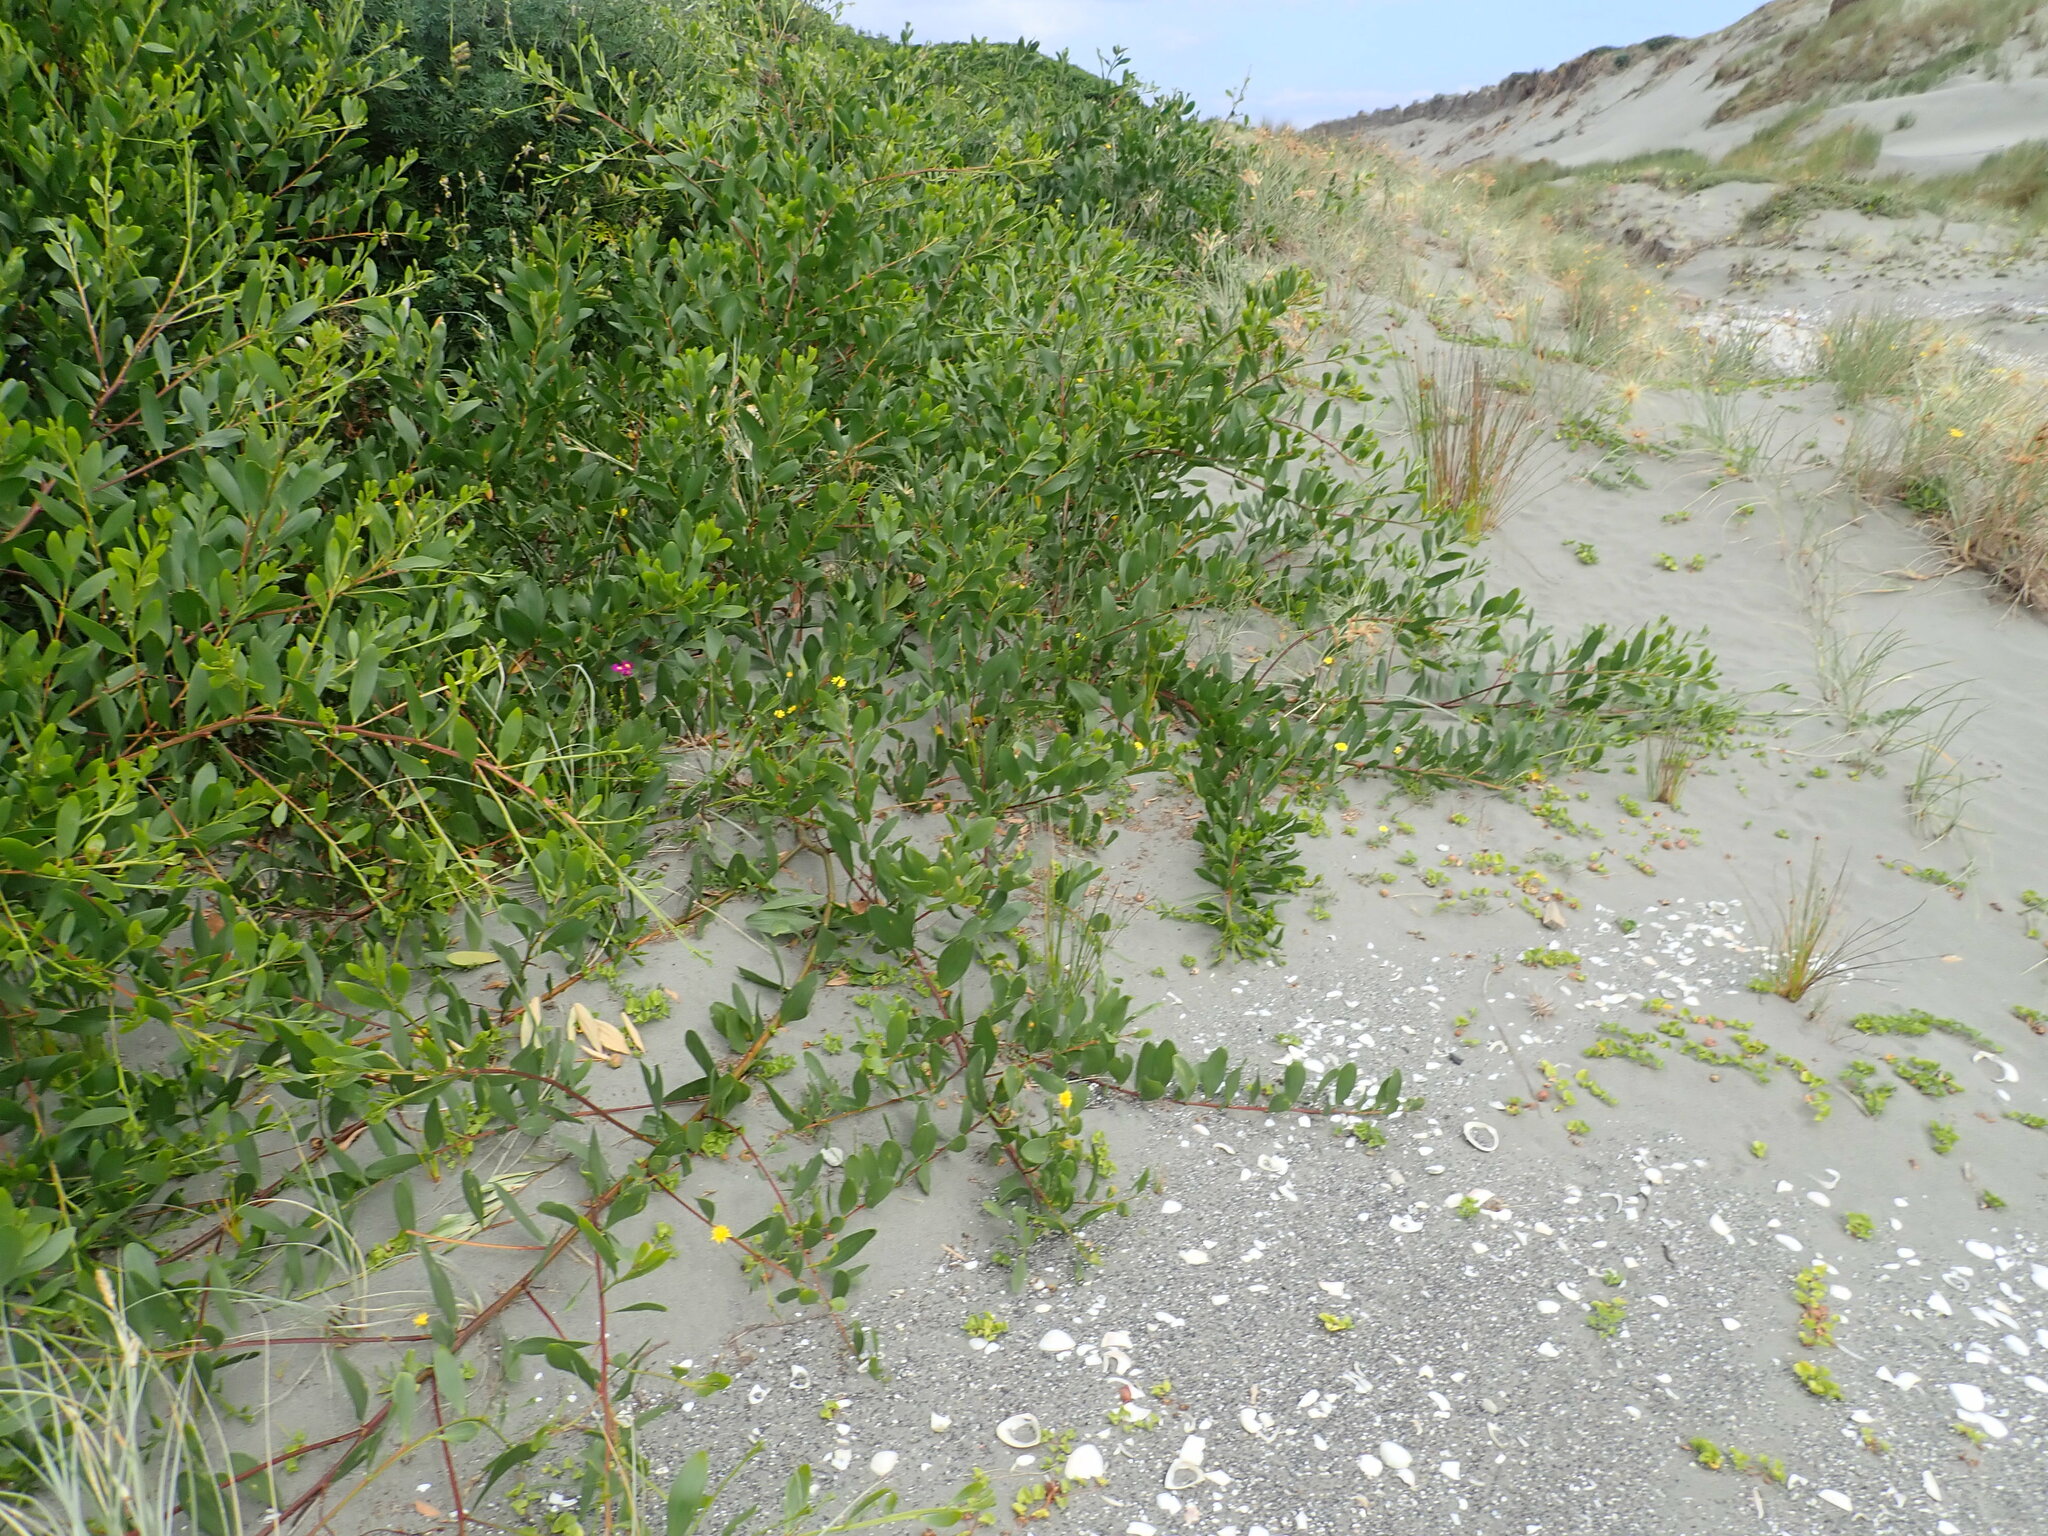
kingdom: Plantae
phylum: Tracheophyta
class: Magnoliopsida
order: Fabales
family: Fabaceae
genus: Acacia
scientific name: Acacia longifolia
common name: Sydney golden wattle
